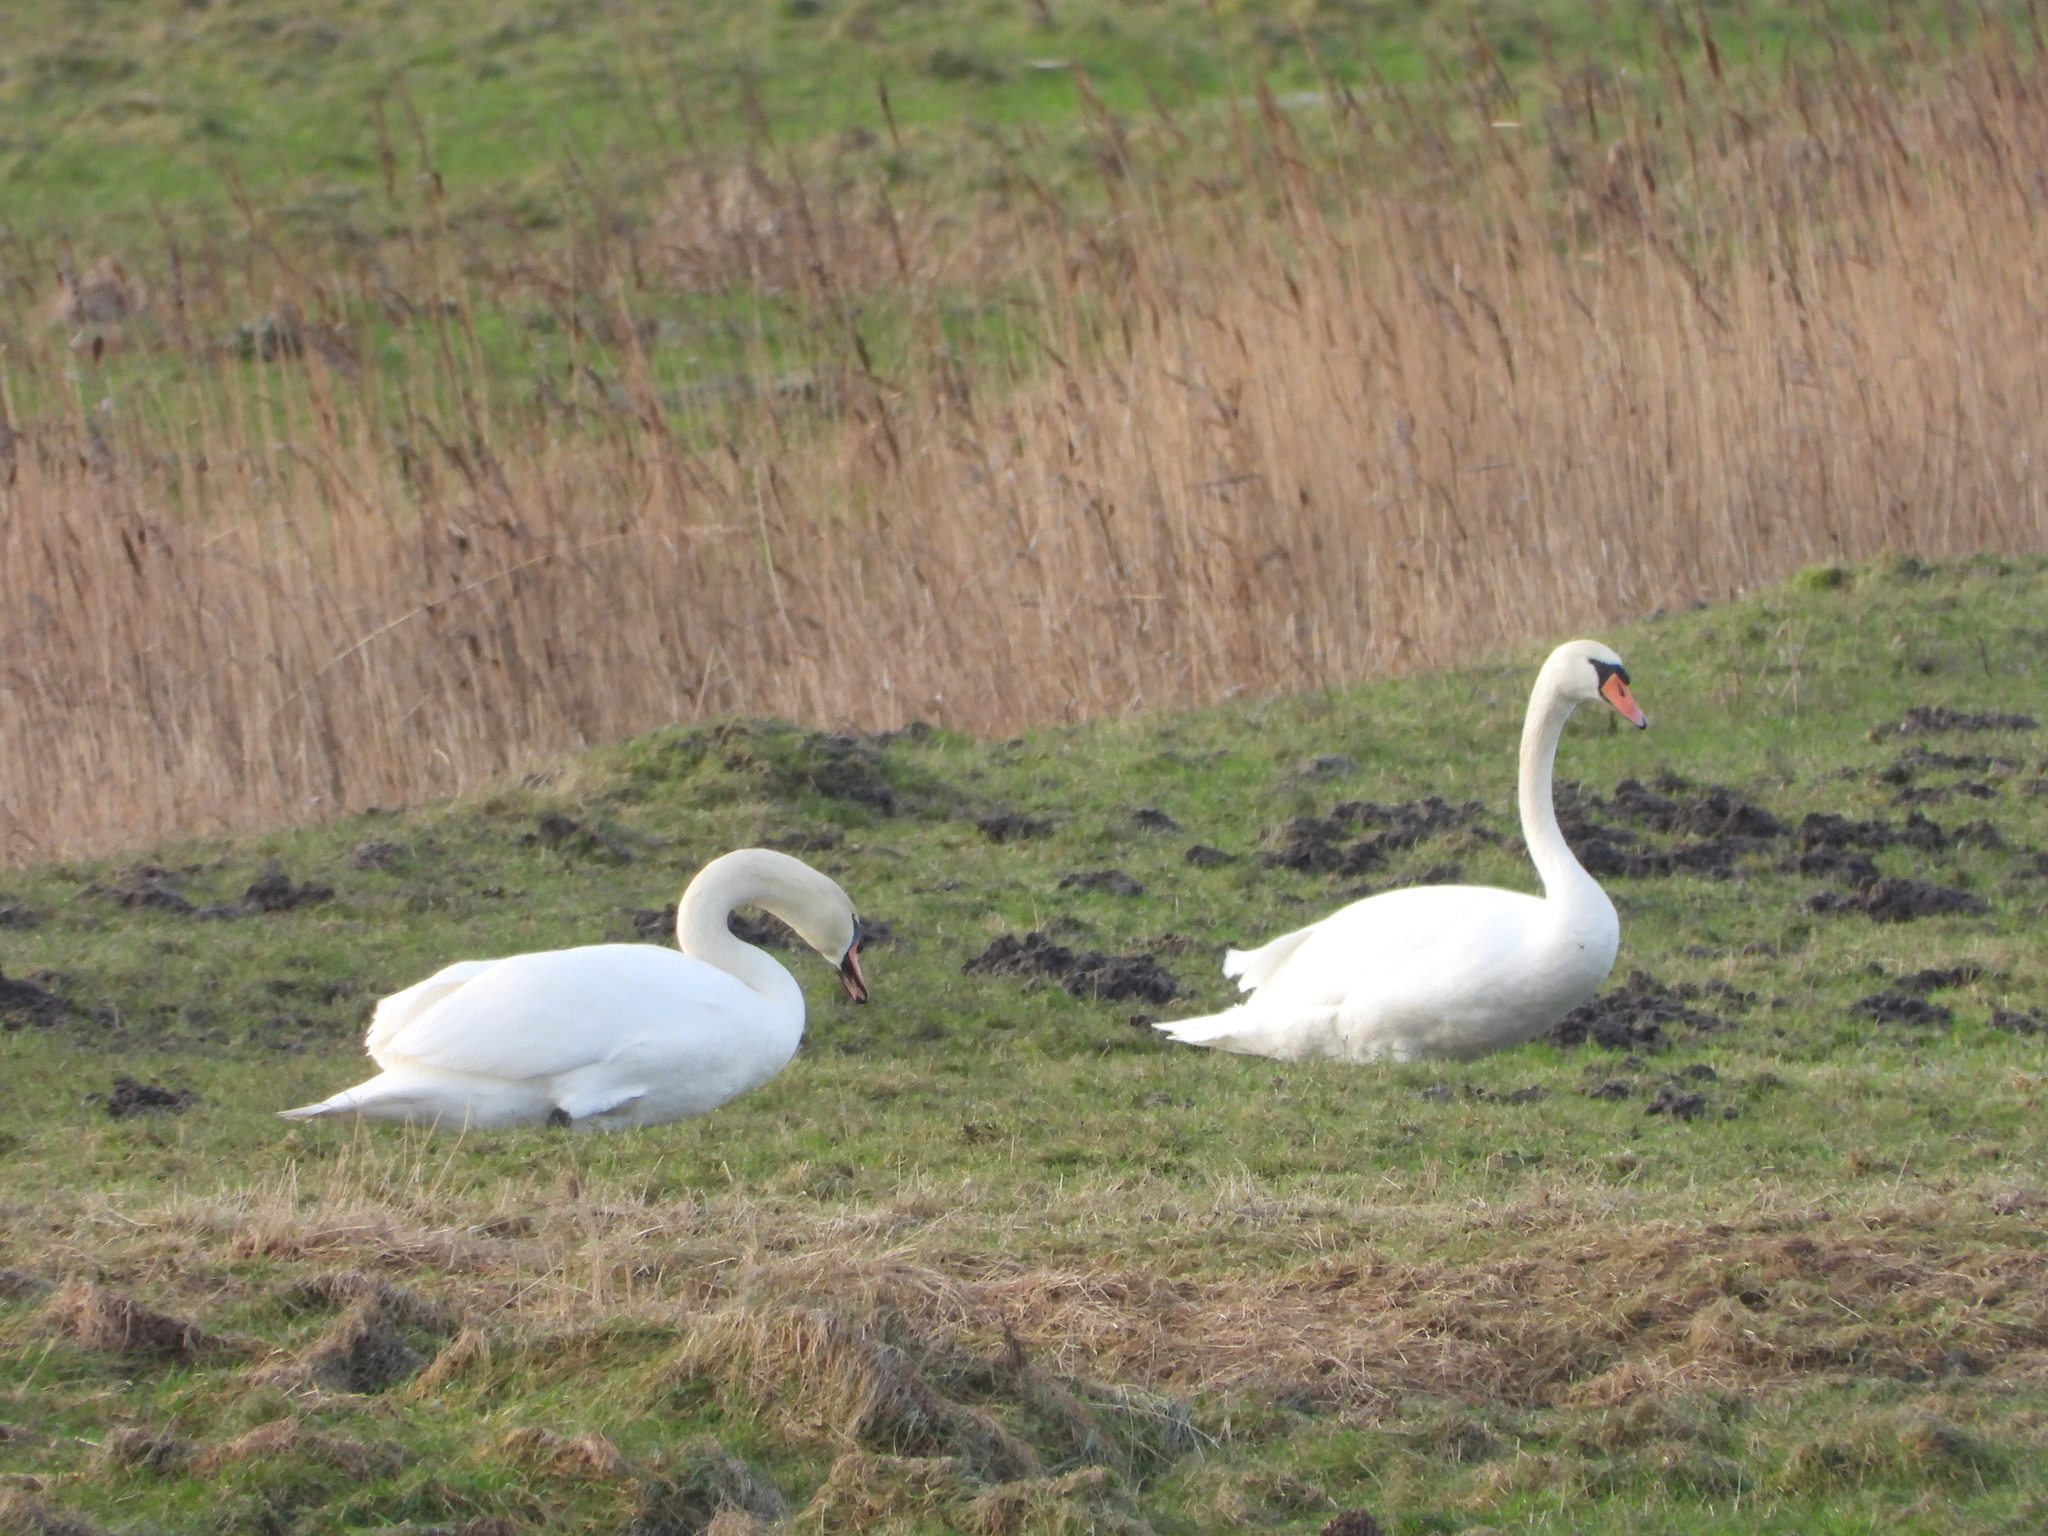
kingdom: Animalia
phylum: Chordata
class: Aves
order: Anseriformes
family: Anatidae
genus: Cygnus
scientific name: Cygnus olor
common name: Mute swan
